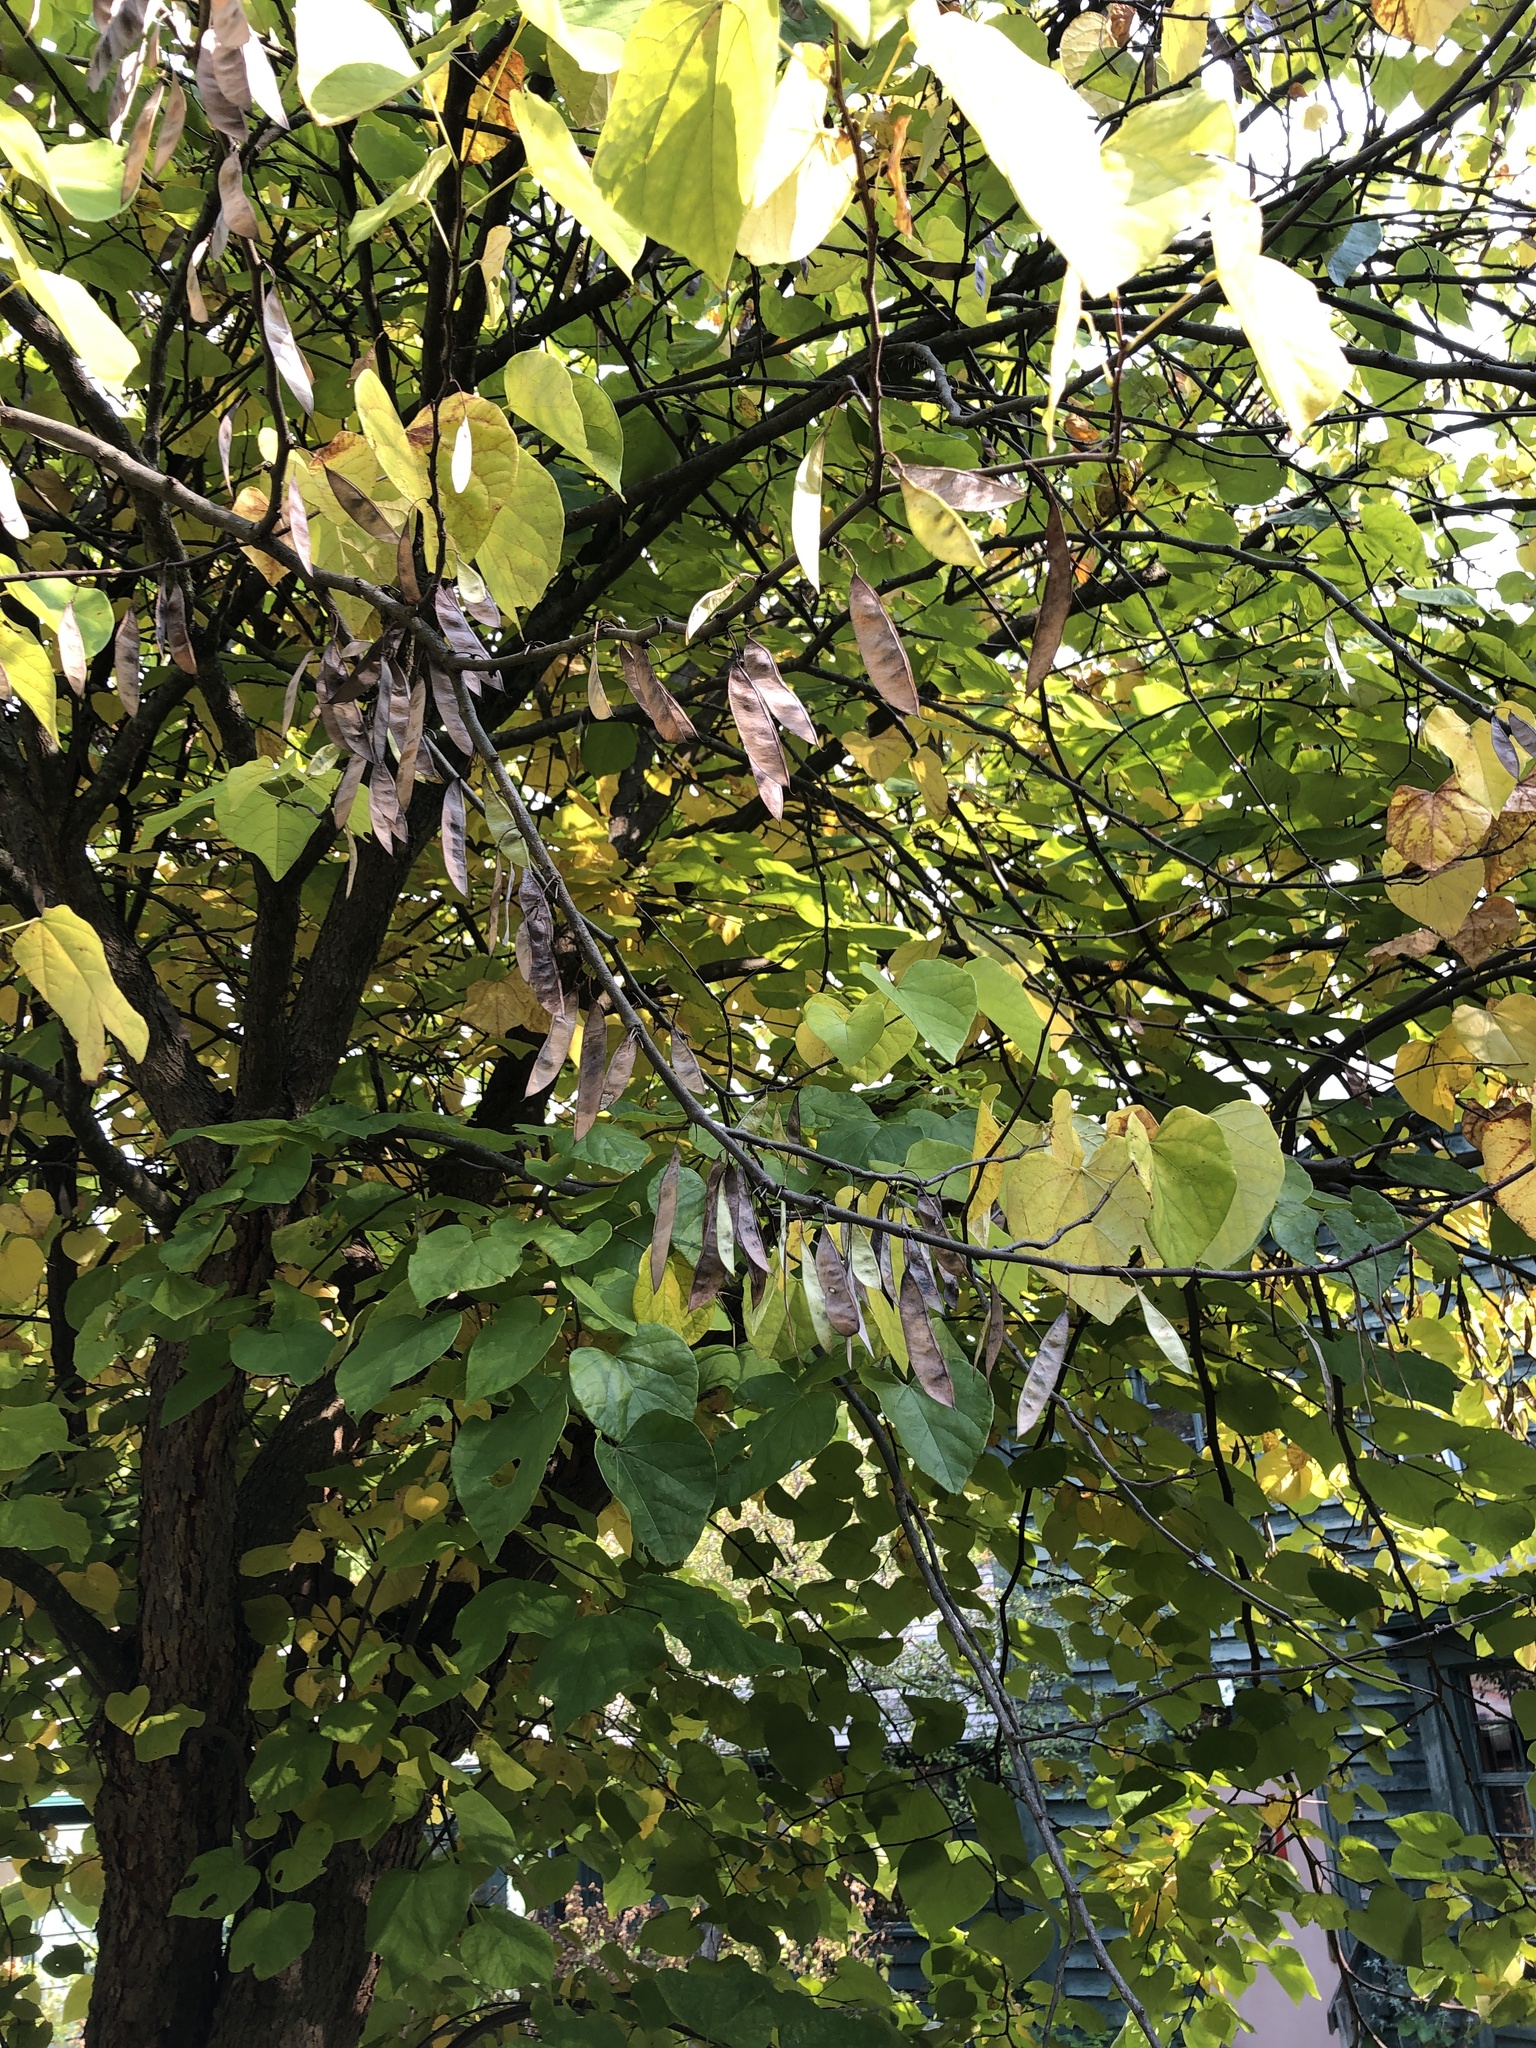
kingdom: Plantae
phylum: Tracheophyta
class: Magnoliopsida
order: Fabales
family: Fabaceae
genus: Cercis
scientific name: Cercis canadensis
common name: Eastern redbud
